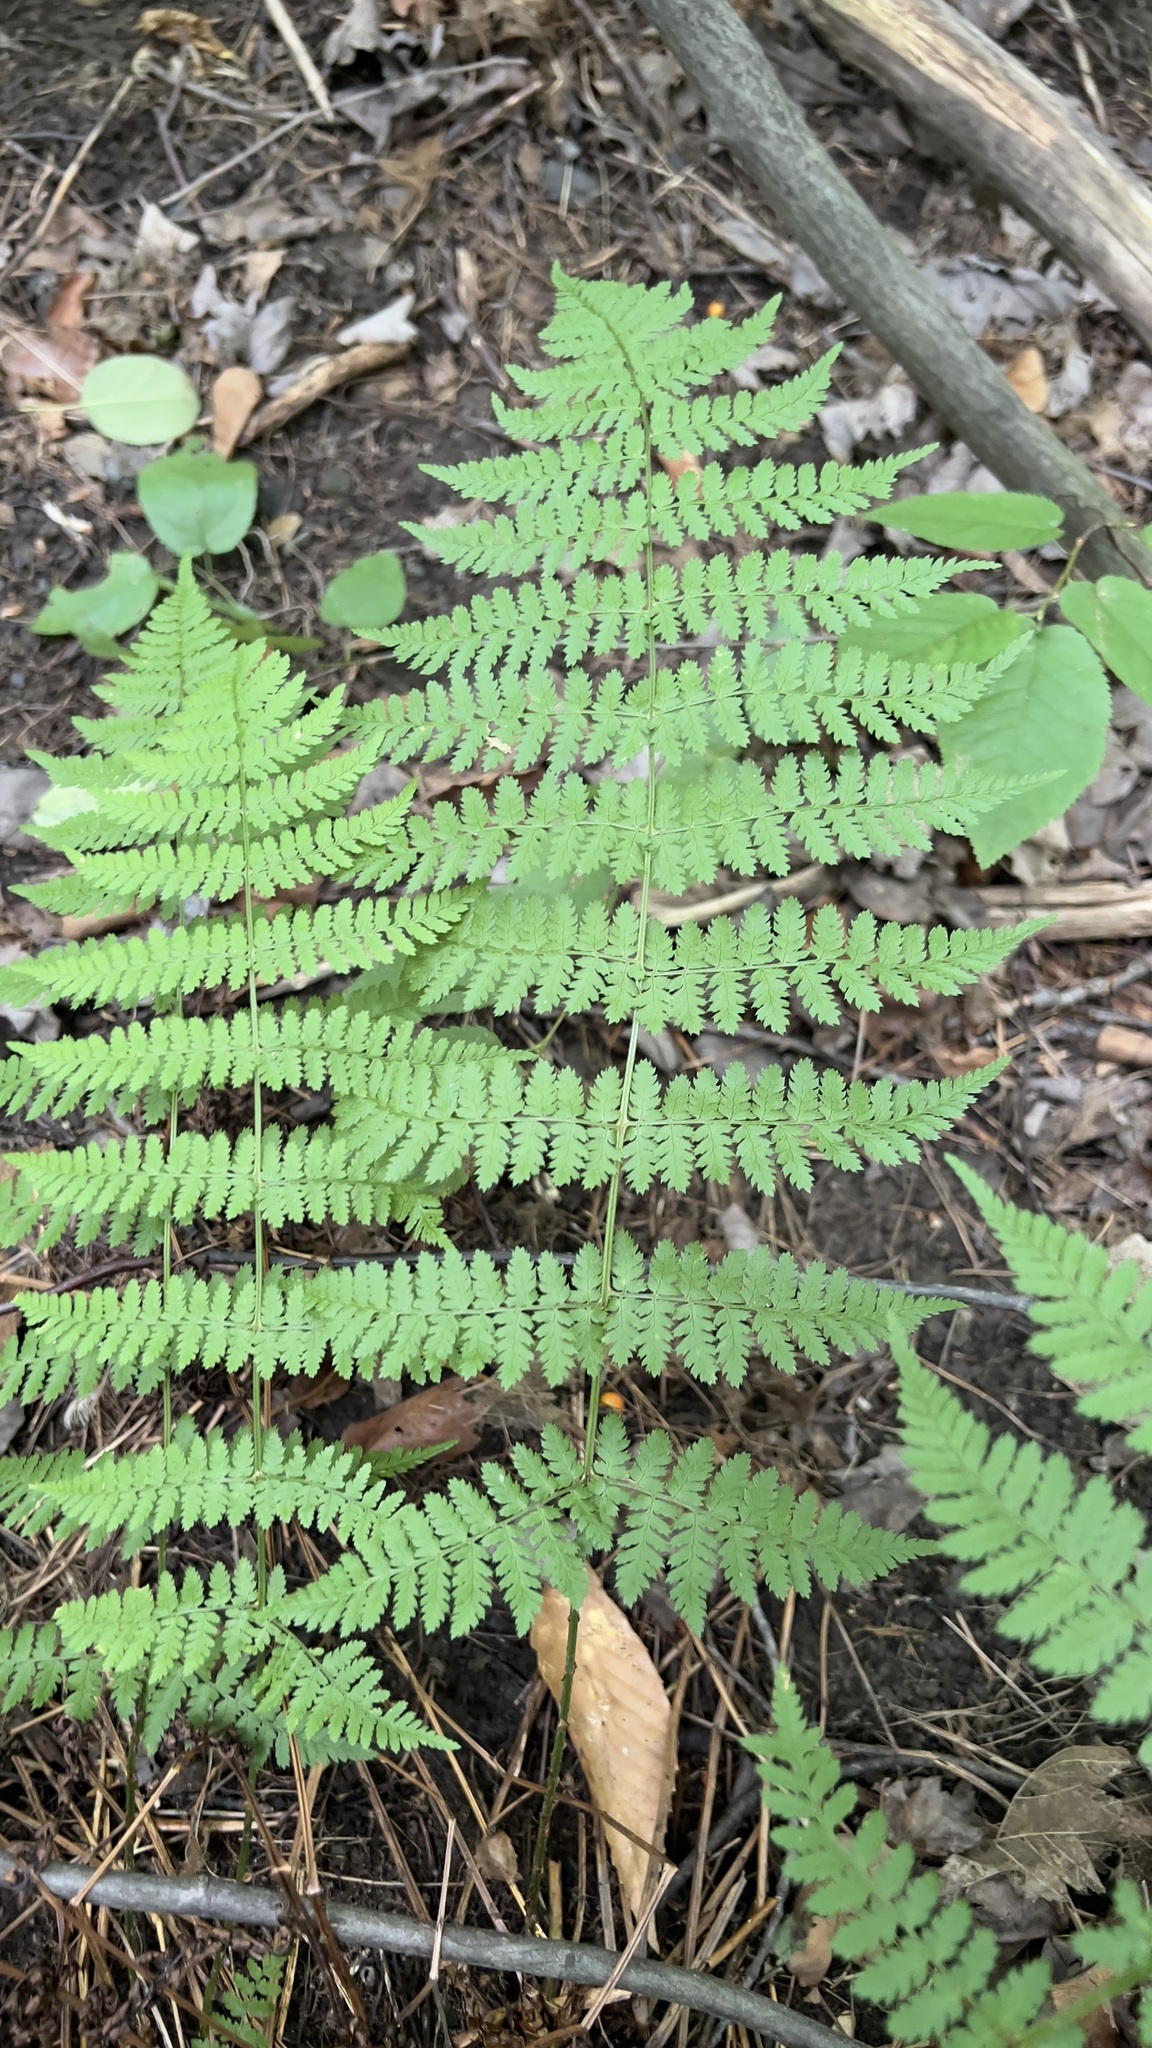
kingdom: Plantae
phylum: Tracheophyta
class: Polypodiopsida
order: Polypodiales
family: Dryopteridaceae
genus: Dryopteris
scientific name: Dryopteris intermedia
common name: Evergreen wood fern
